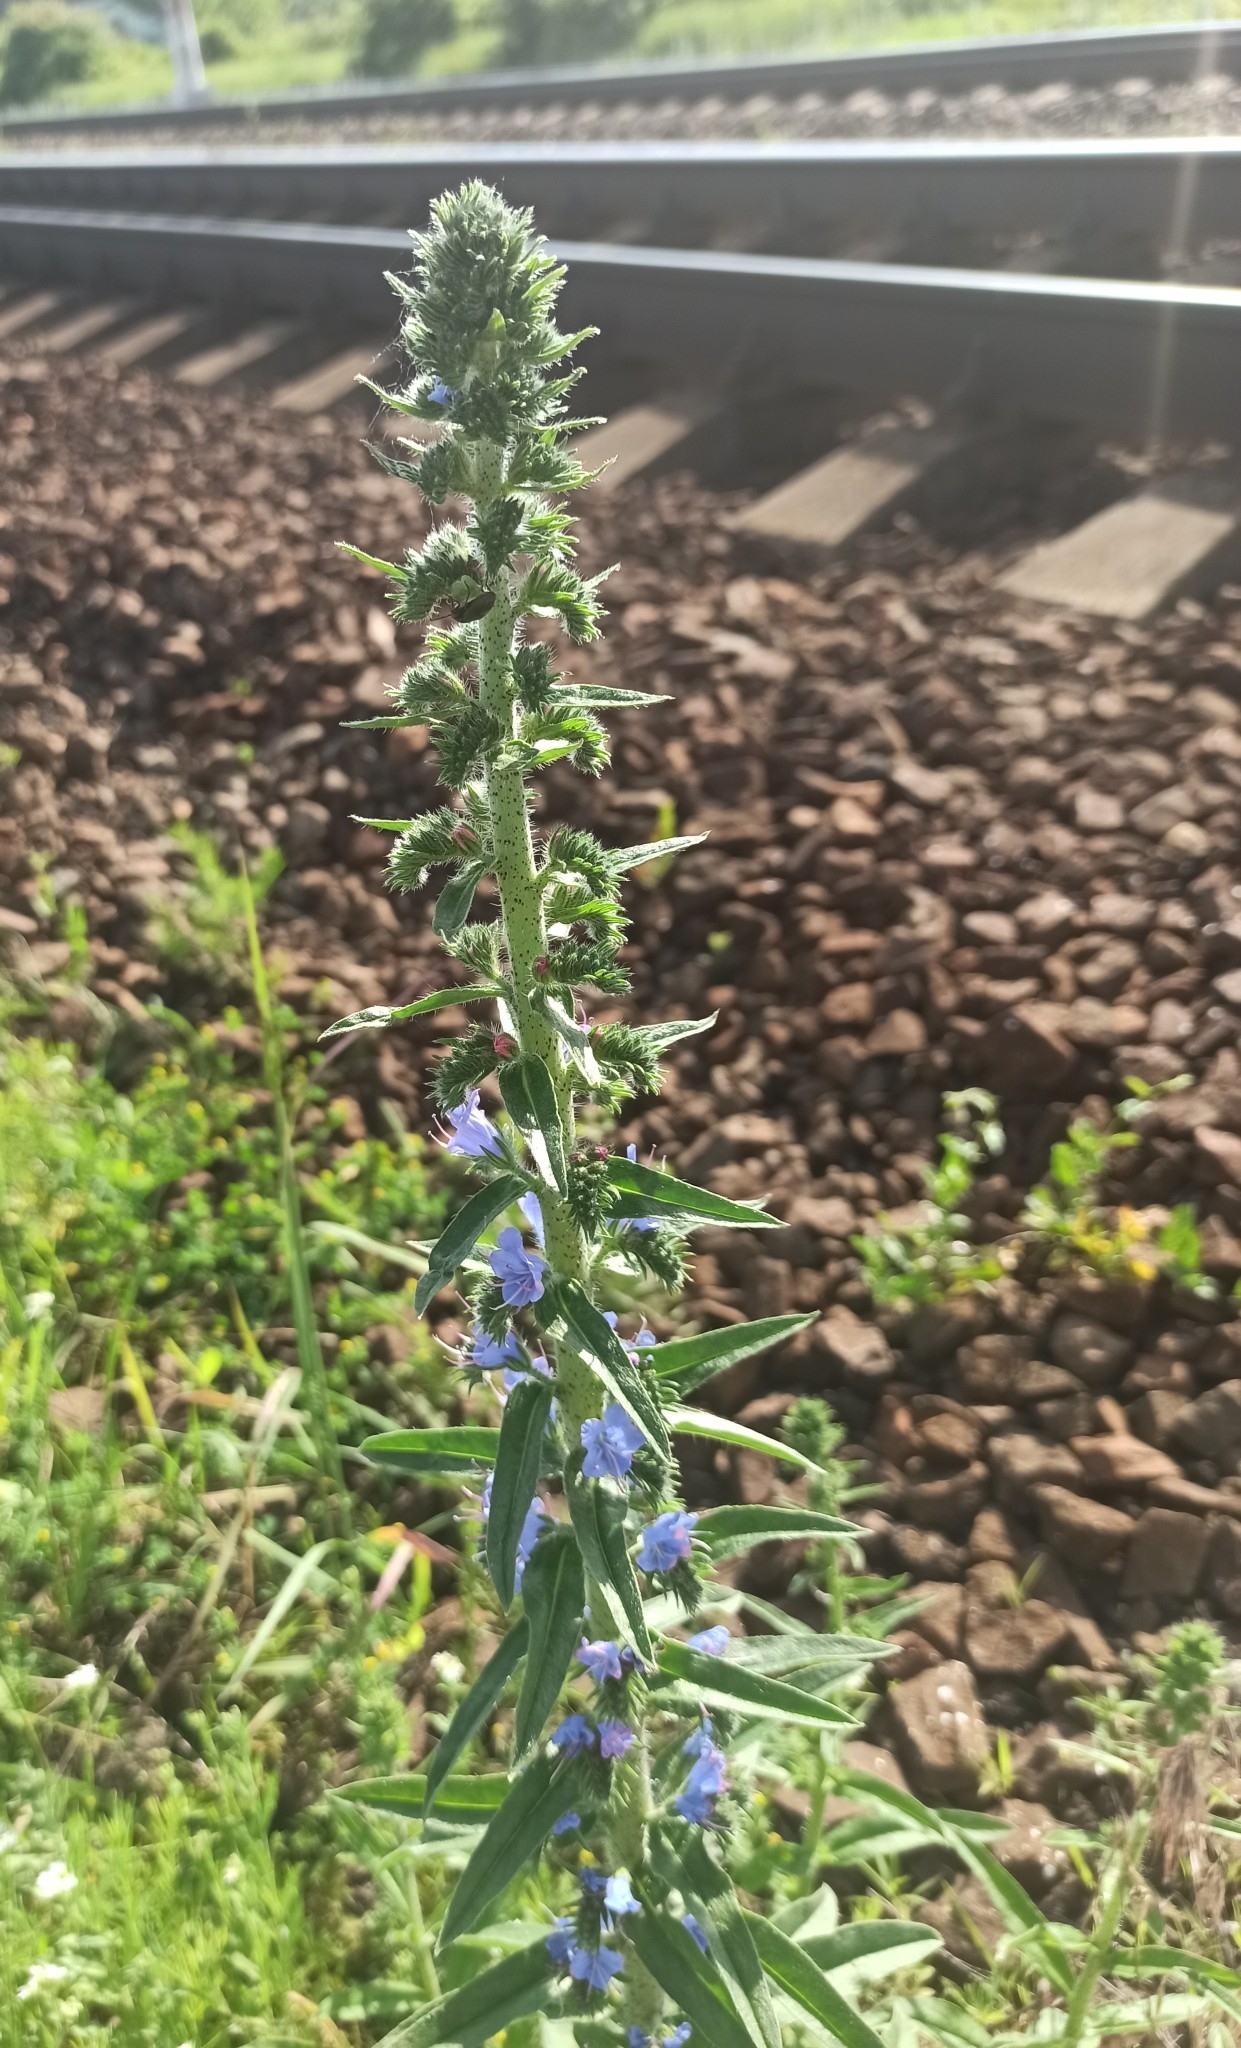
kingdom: Plantae
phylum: Tracheophyta
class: Magnoliopsida
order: Boraginales
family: Boraginaceae
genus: Echium
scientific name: Echium vulgare
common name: Common viper's bugloss
